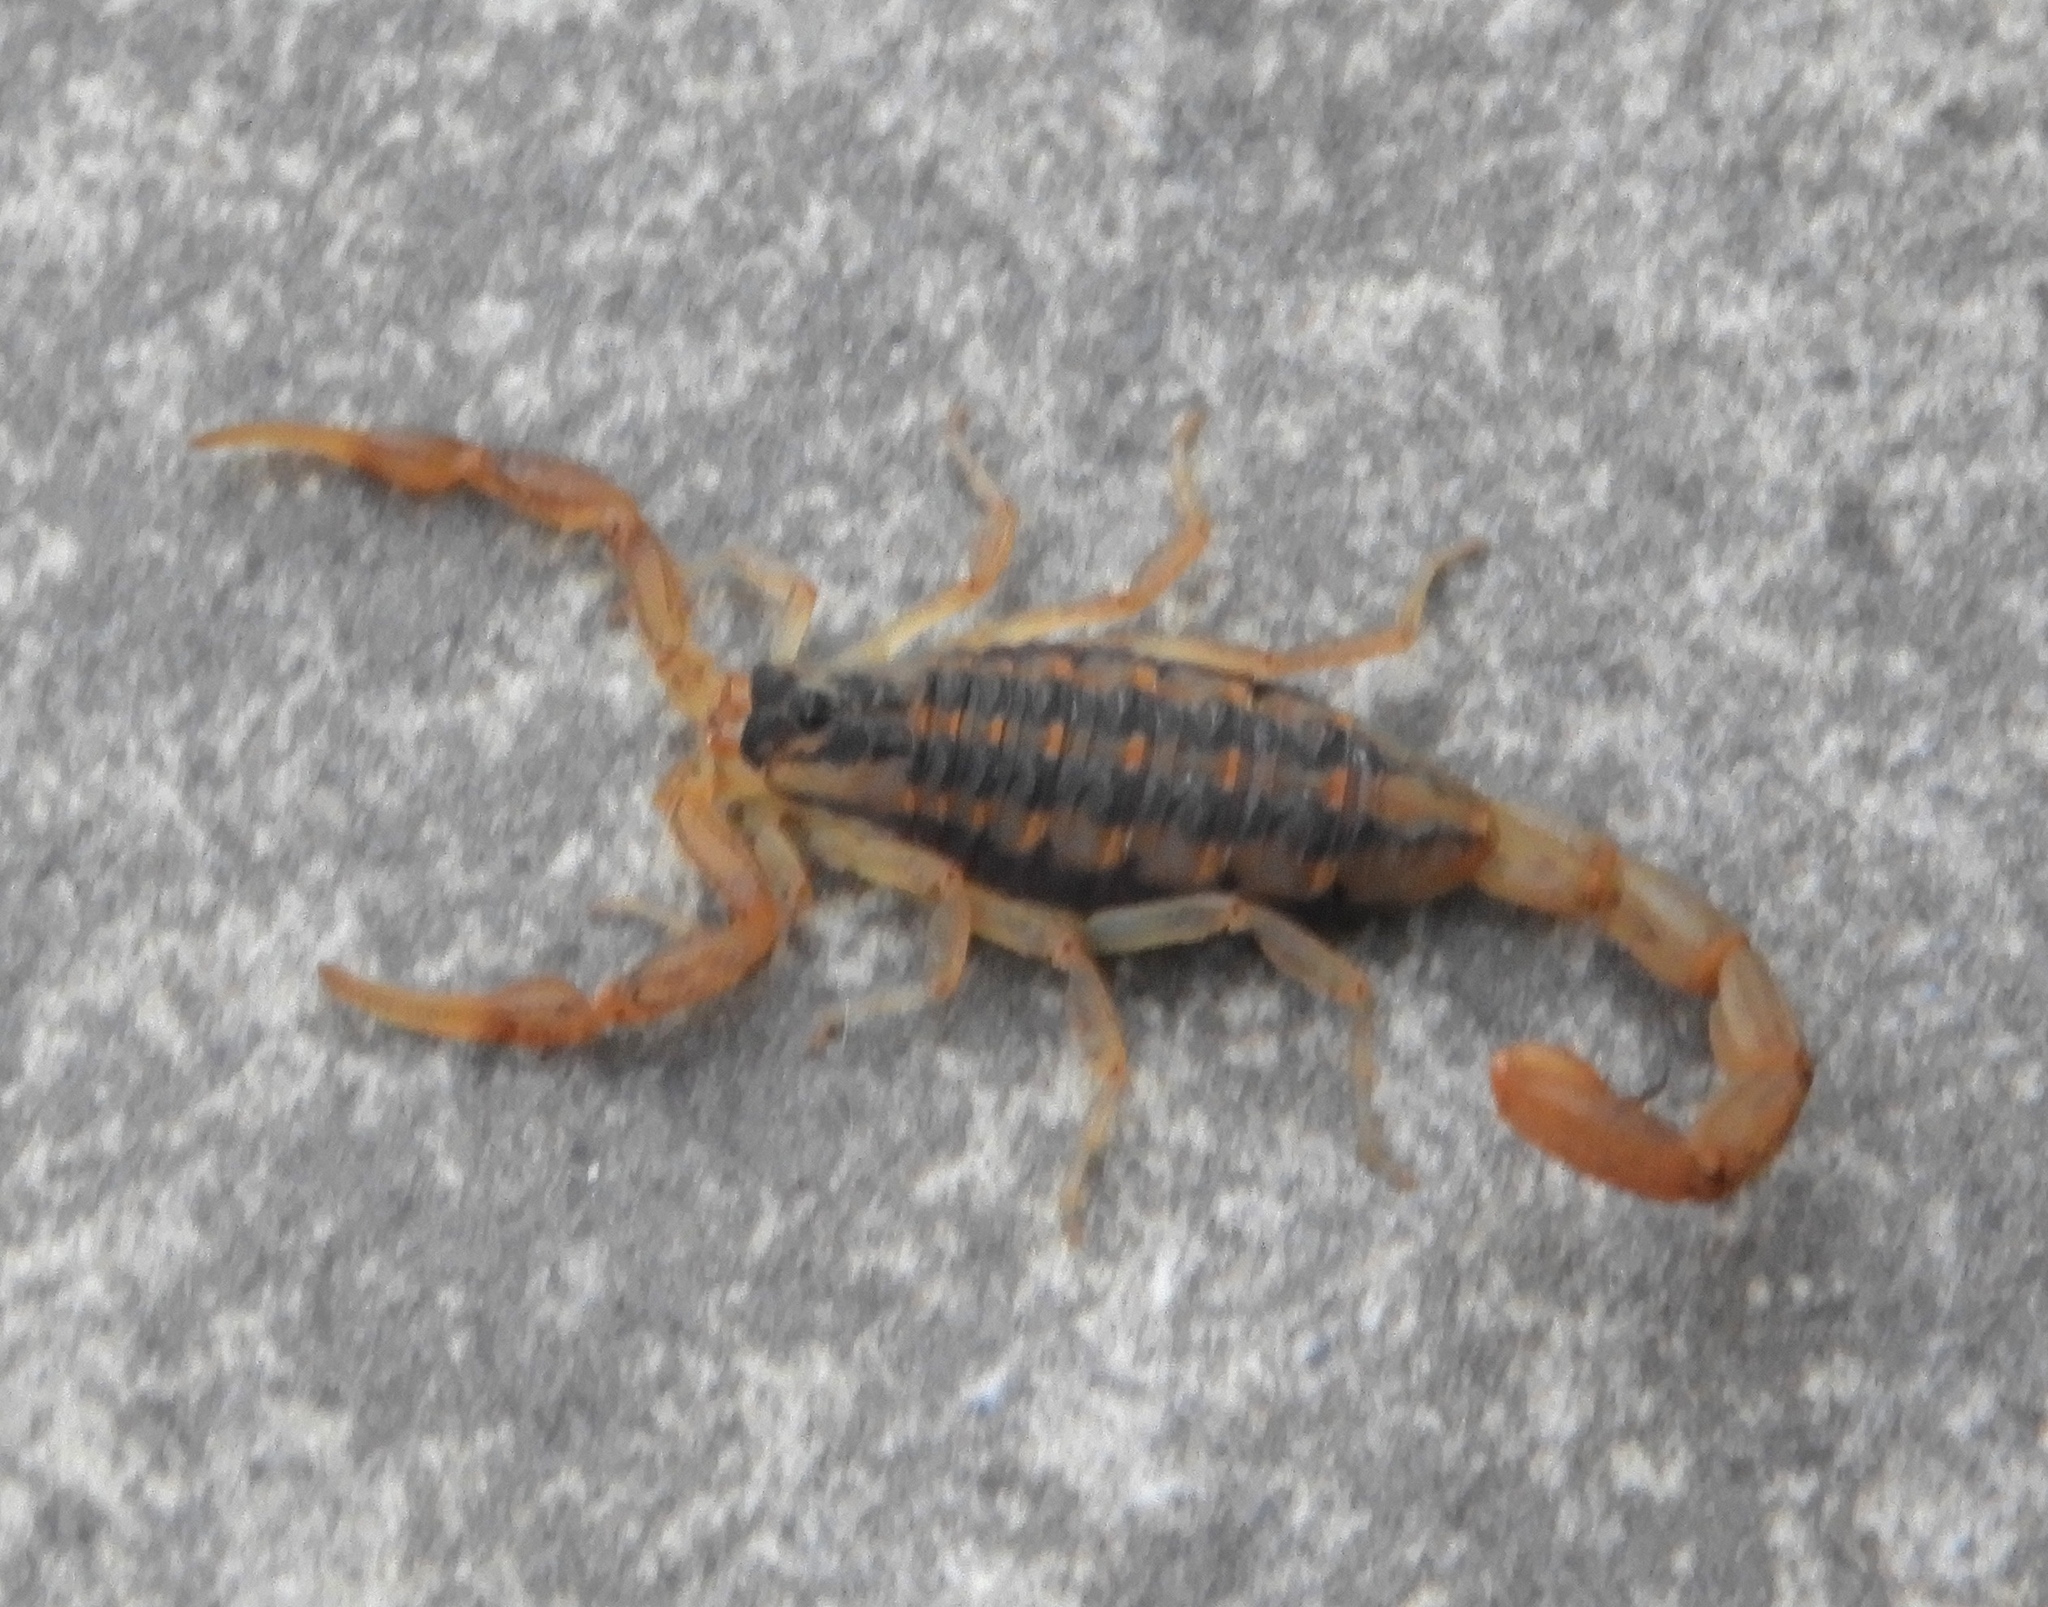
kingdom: Animalia
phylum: Arthropoda
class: Arachnida
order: Scorpiones
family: Buthidae
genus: Centruroides
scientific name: Centruroides baldazoi
